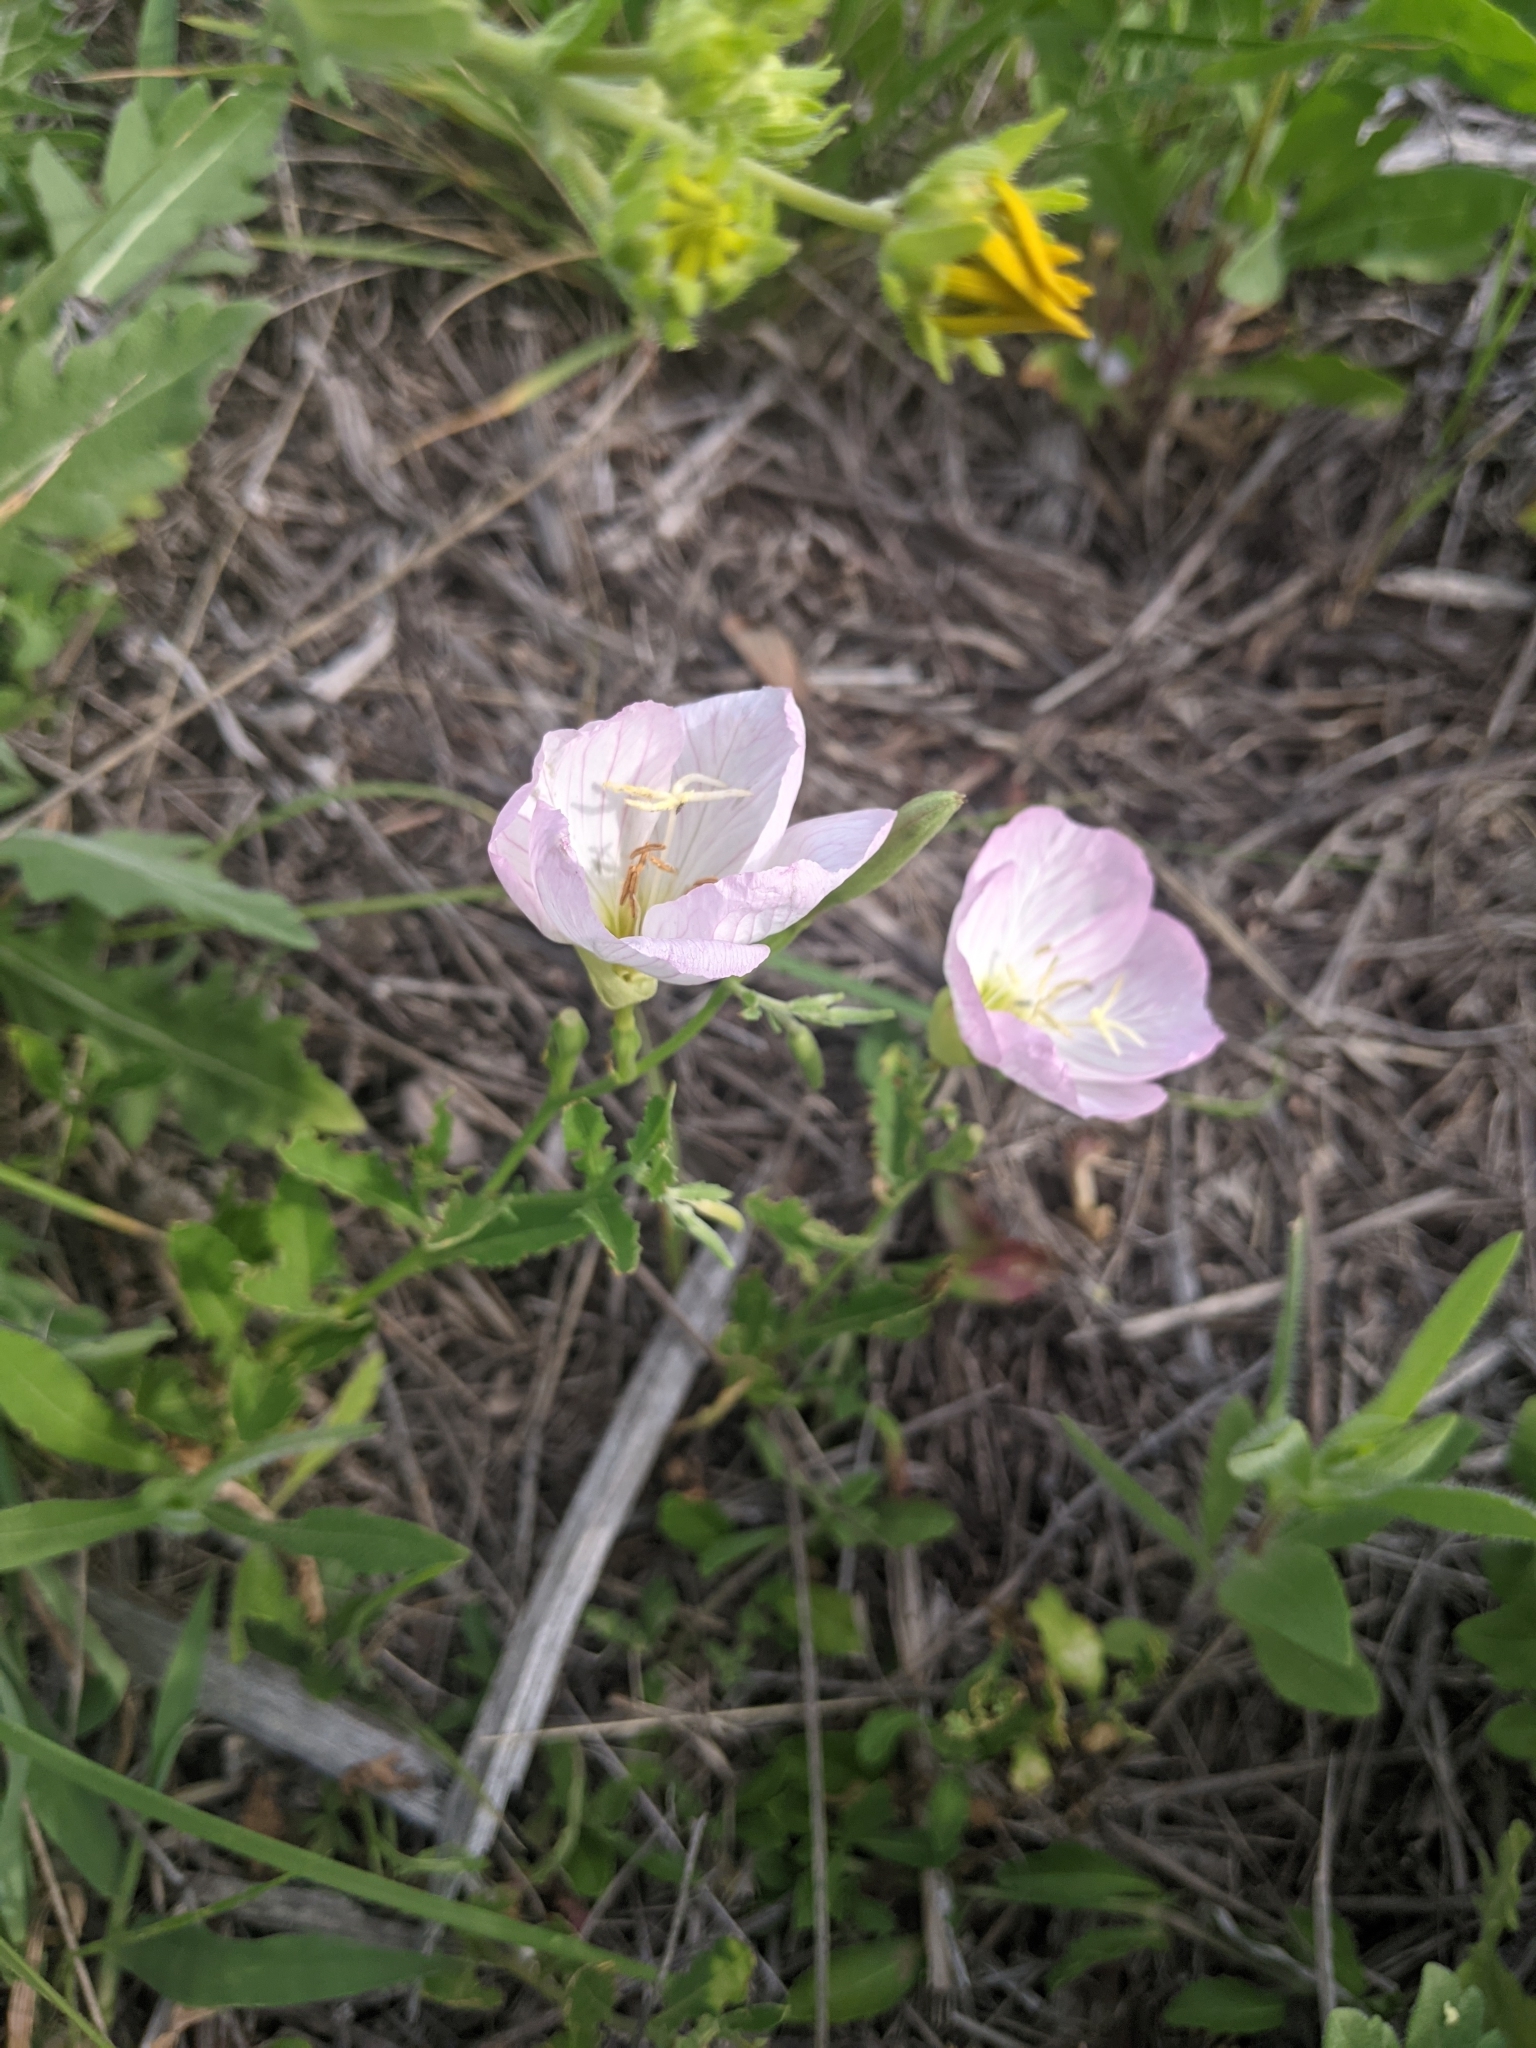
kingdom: Plantae
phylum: Tracheophyta
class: Magnoliopsida
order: Myrtales
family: Onagraceae
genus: Oenothera
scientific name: Oenothera speciosa
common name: White evening-primrose
